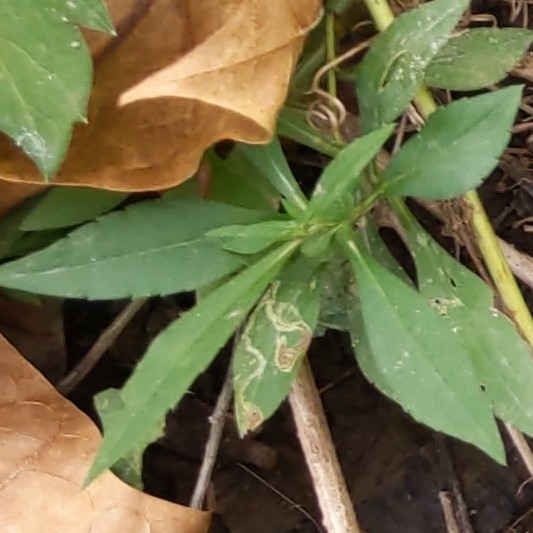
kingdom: Animalia
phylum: Arthropoda
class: Insecta
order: Diptera
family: Agromyzidae
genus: Liriomyza
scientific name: Liriomyza eupatorii
